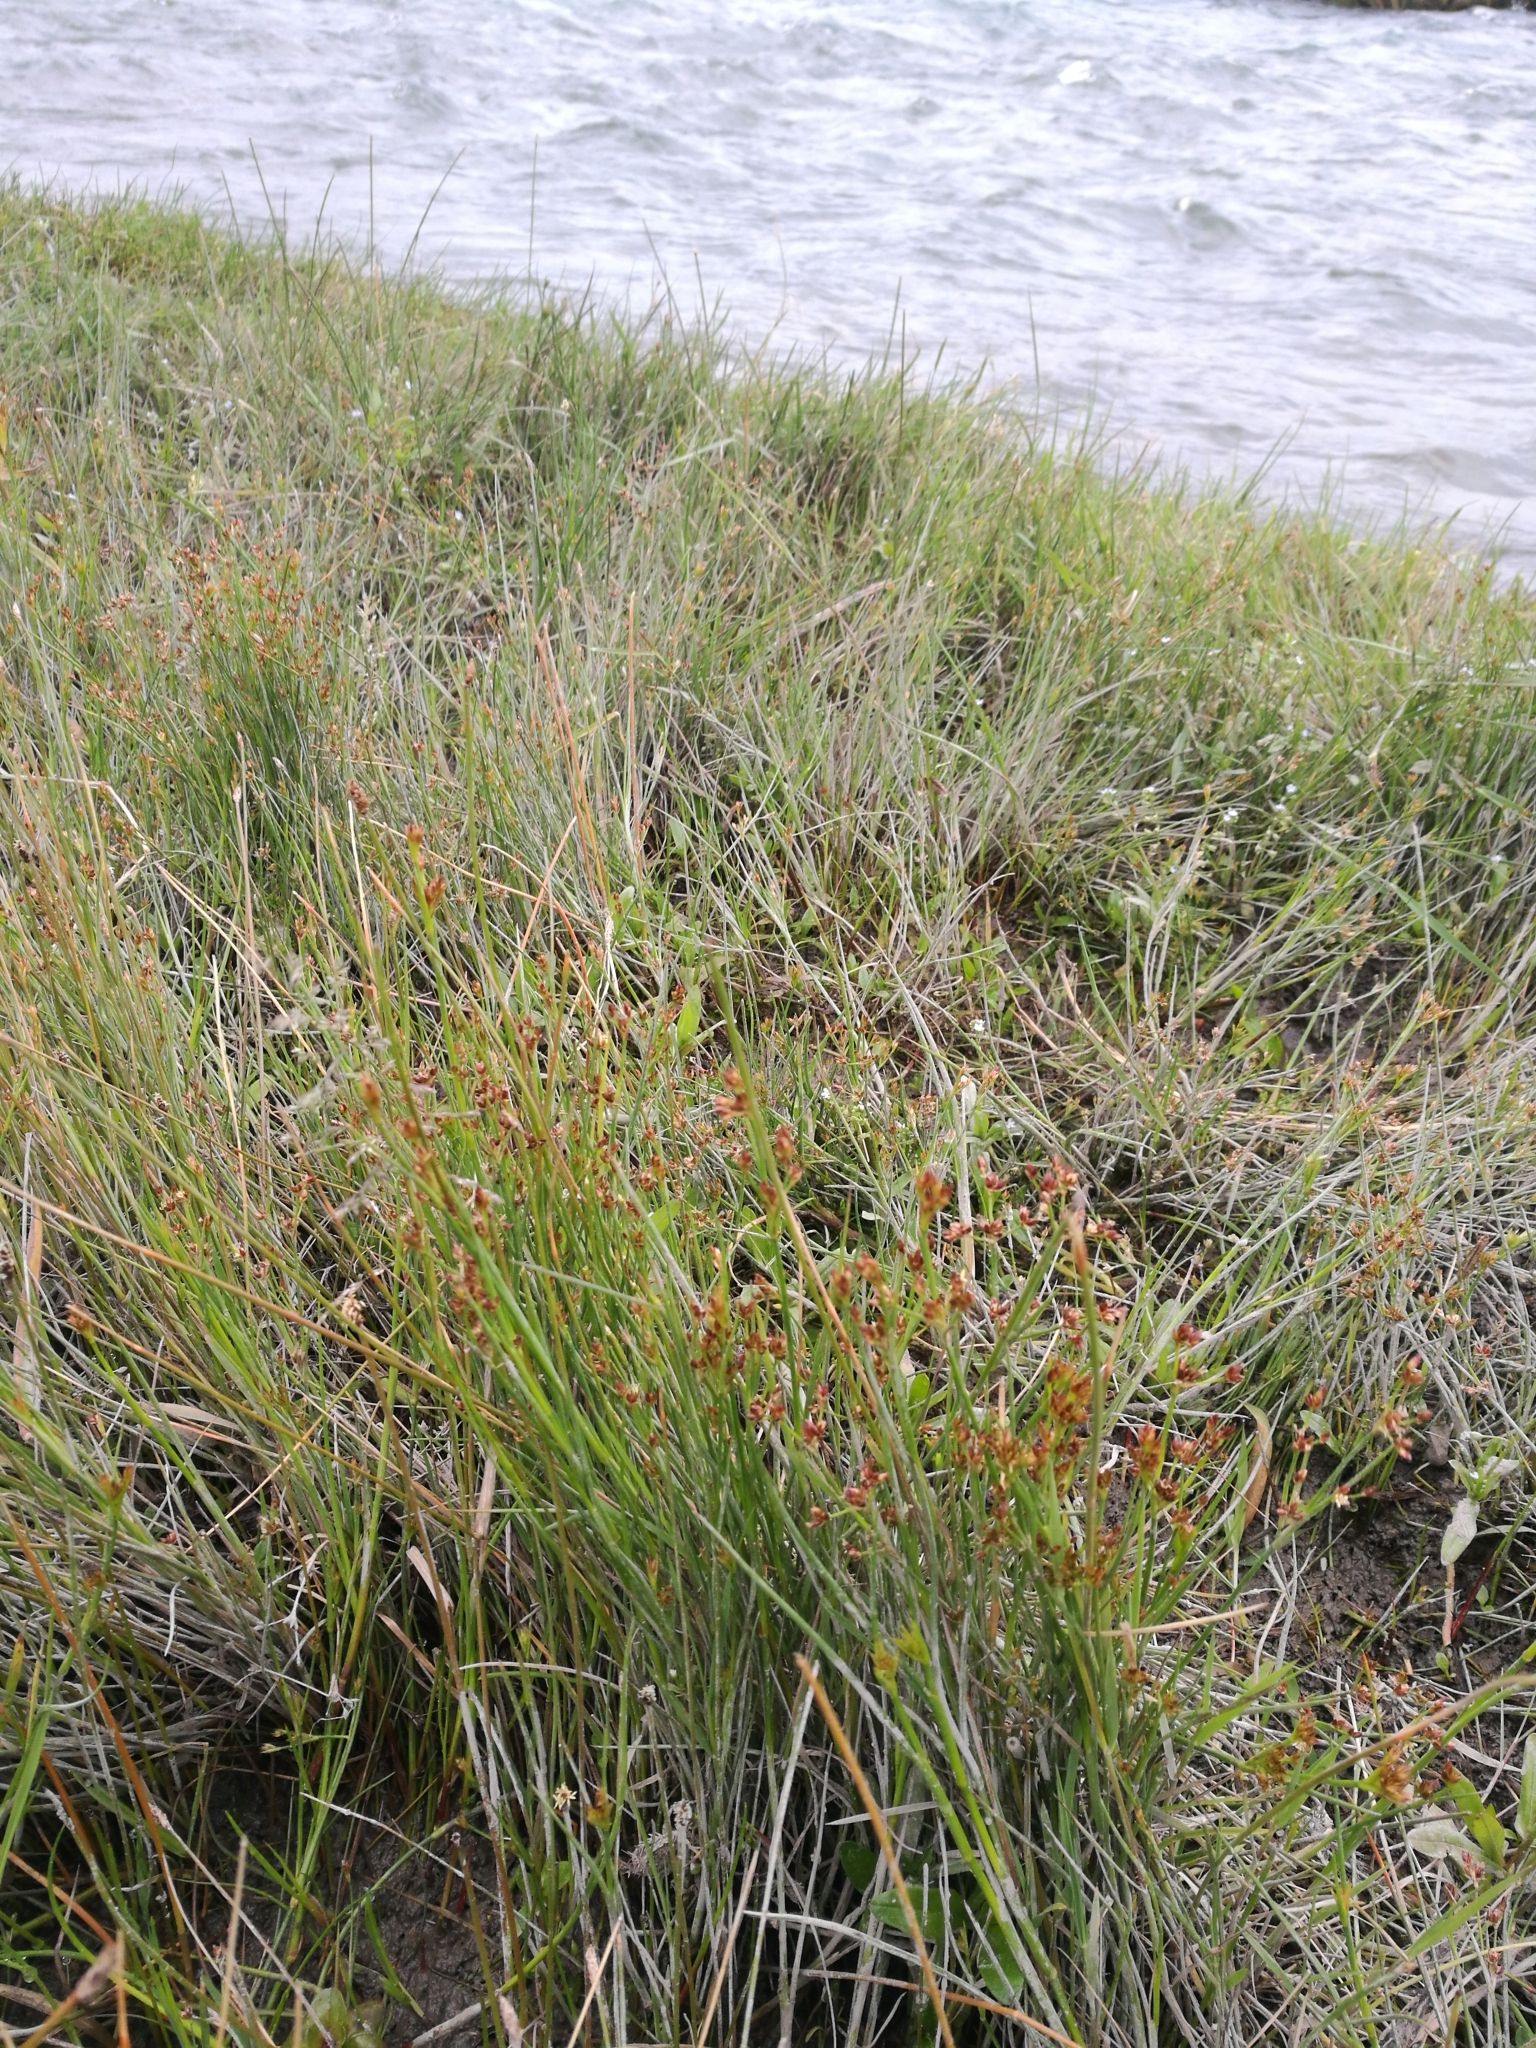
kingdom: Plantae
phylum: Tracheophyta
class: Liliopsida
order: Poales
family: Juncaceae
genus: Juncus
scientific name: Juncus articulatus
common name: Jointed rush
